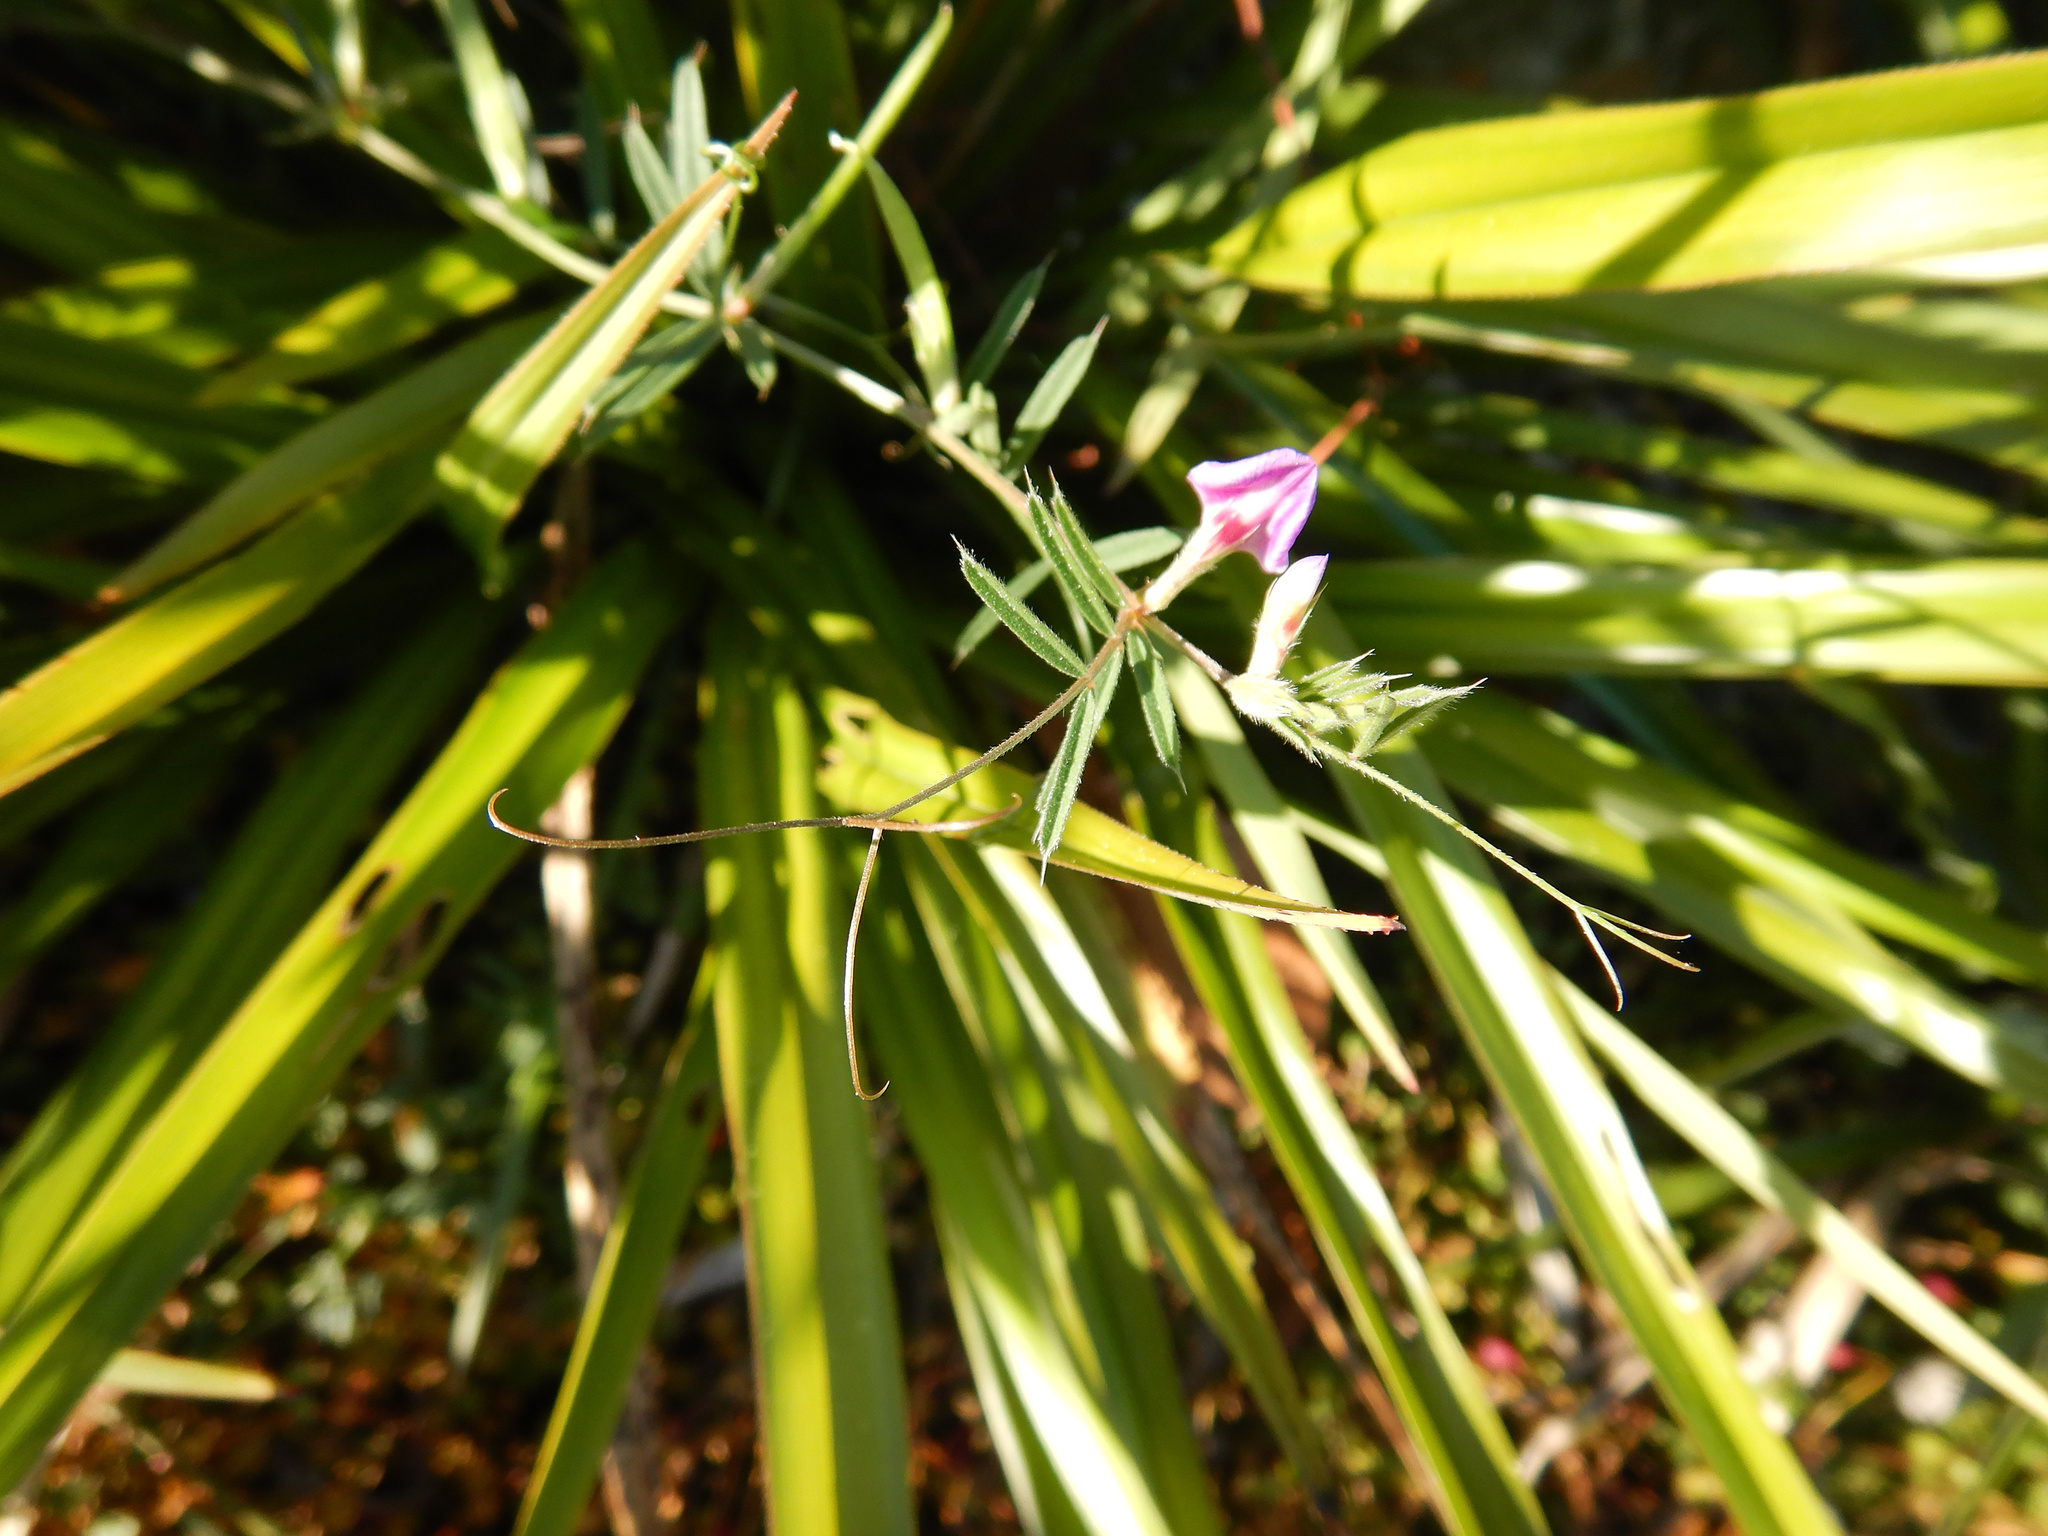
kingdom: Plantae
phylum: Tracheophyta
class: Magnoliopsida
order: Fabales
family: Fabaceae
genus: Vicia
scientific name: Vicia sativa
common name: Garden vetch
